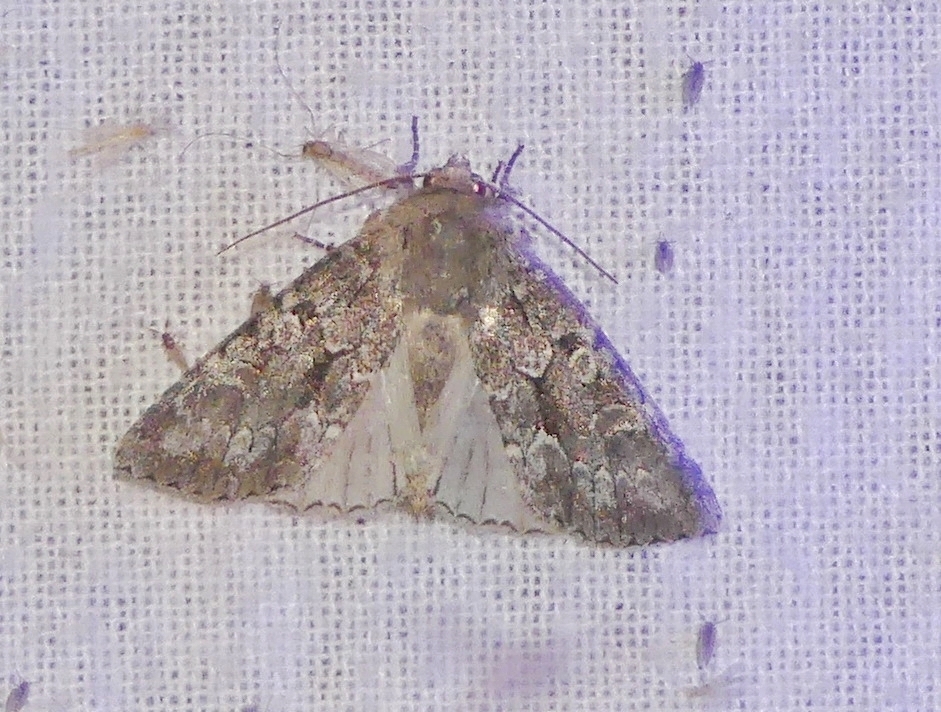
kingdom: Animalia
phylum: Arthropoda
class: Insecta
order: Lepidoptera
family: Noctuidae
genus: Sutyna
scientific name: Sutyna privata
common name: Private sallow
